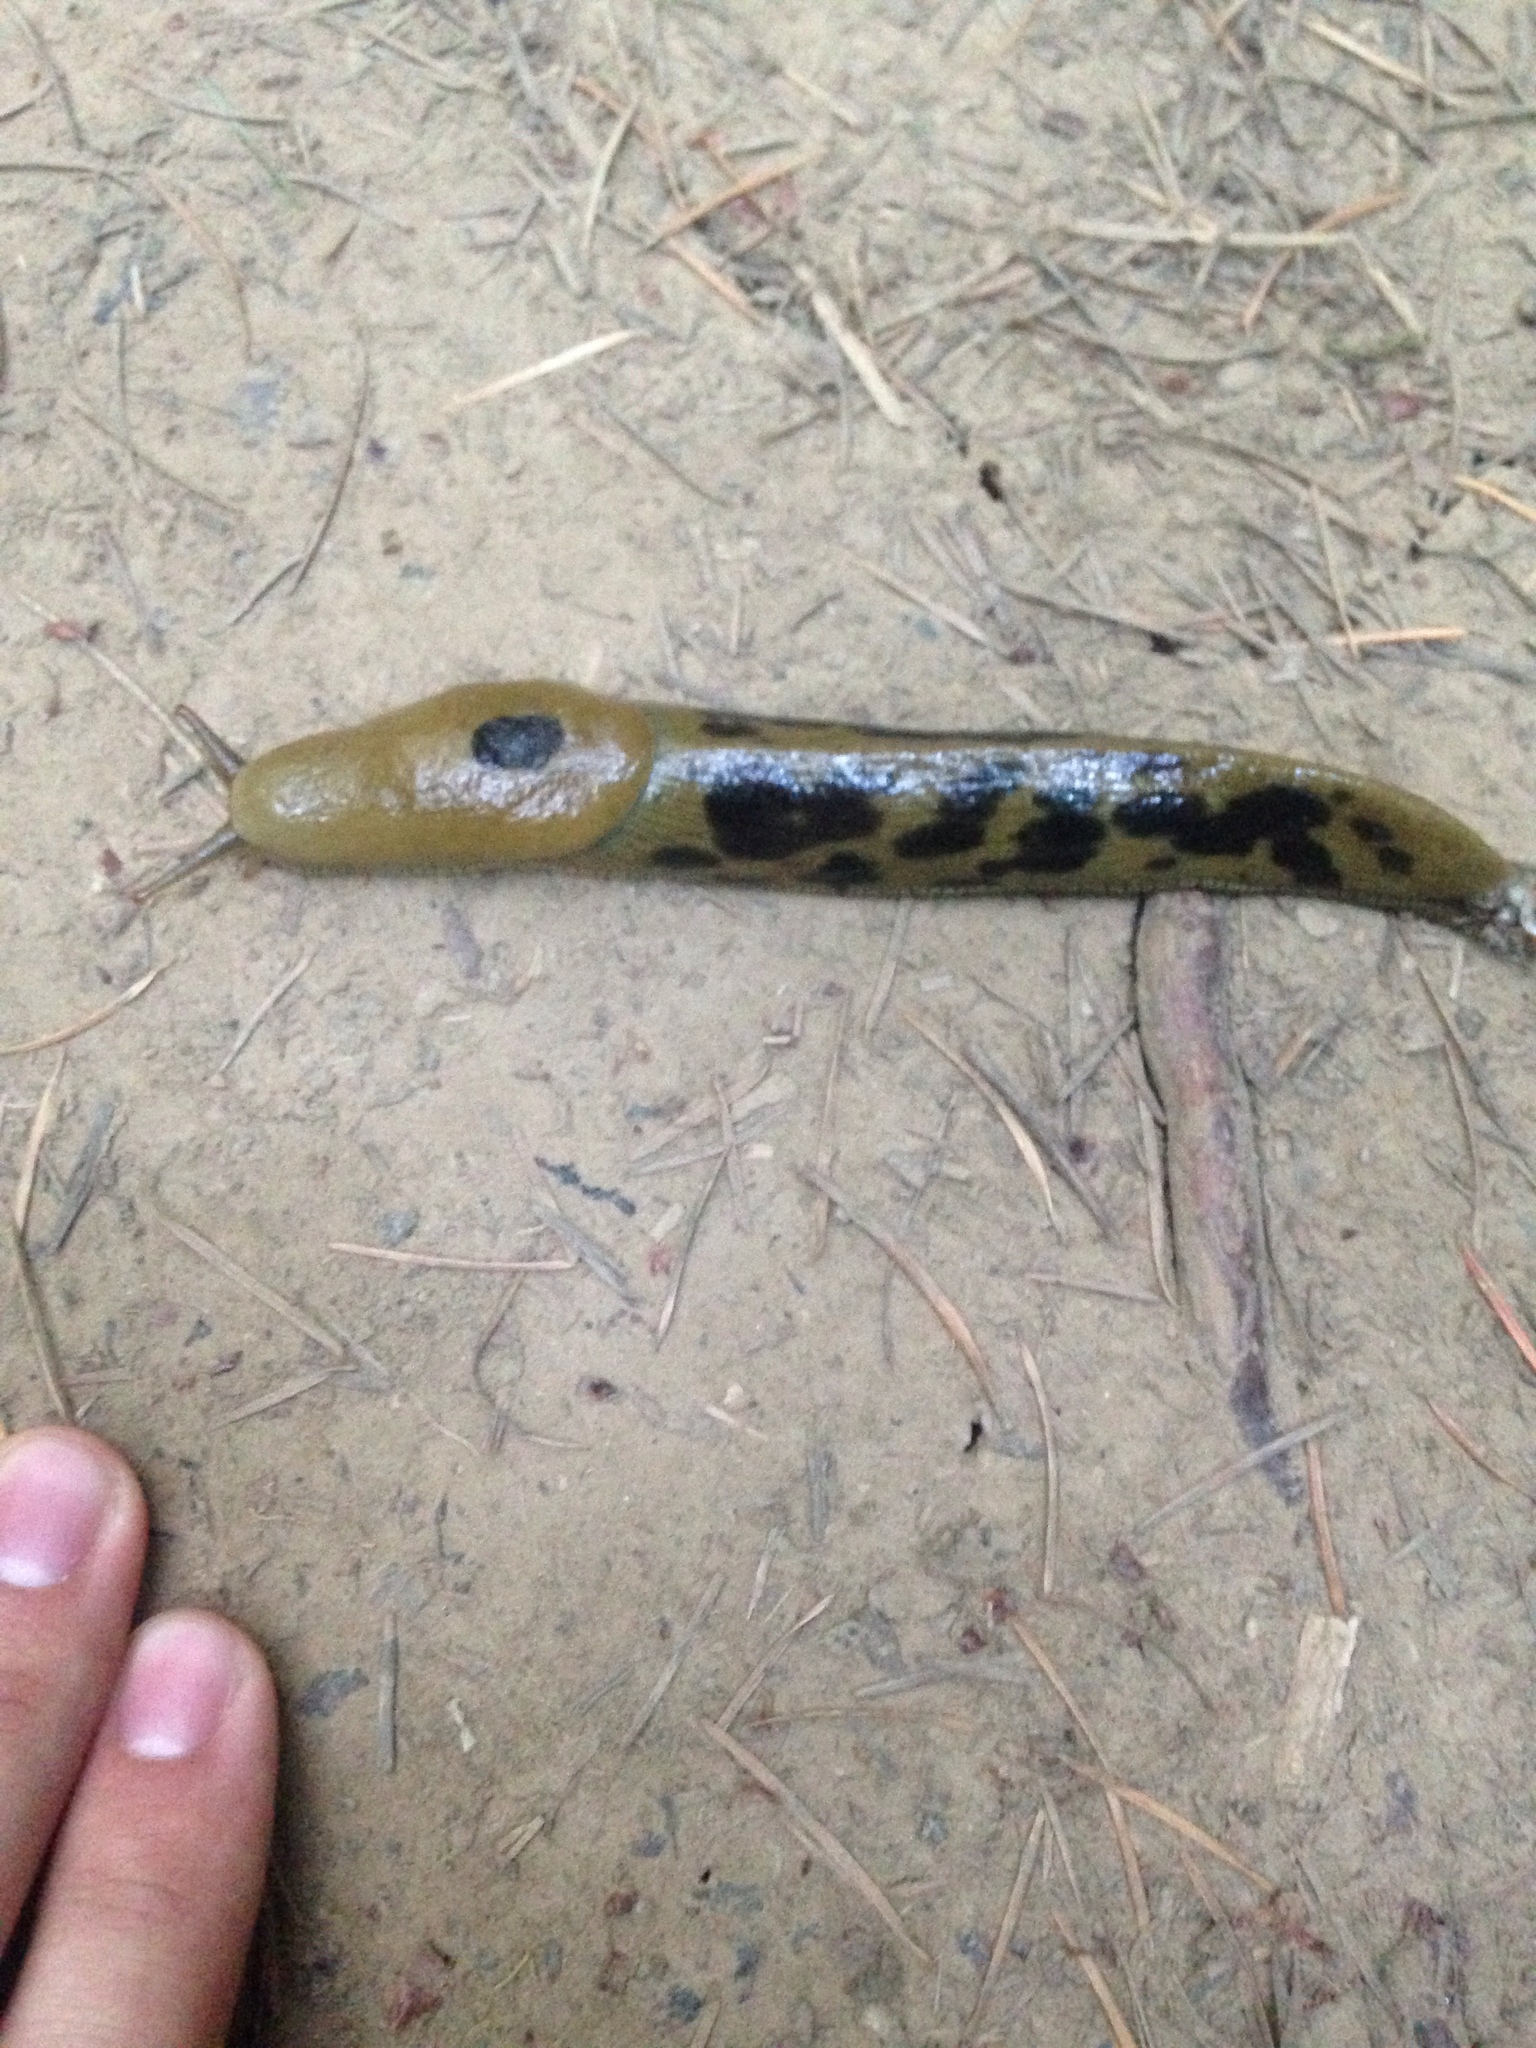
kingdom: Animalia
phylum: Mollusca
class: Gastropoda
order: Stylommatophora
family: Ariolimacidae
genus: Ariolimax
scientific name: Ariolimax columbianus
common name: Pacific banana slug
